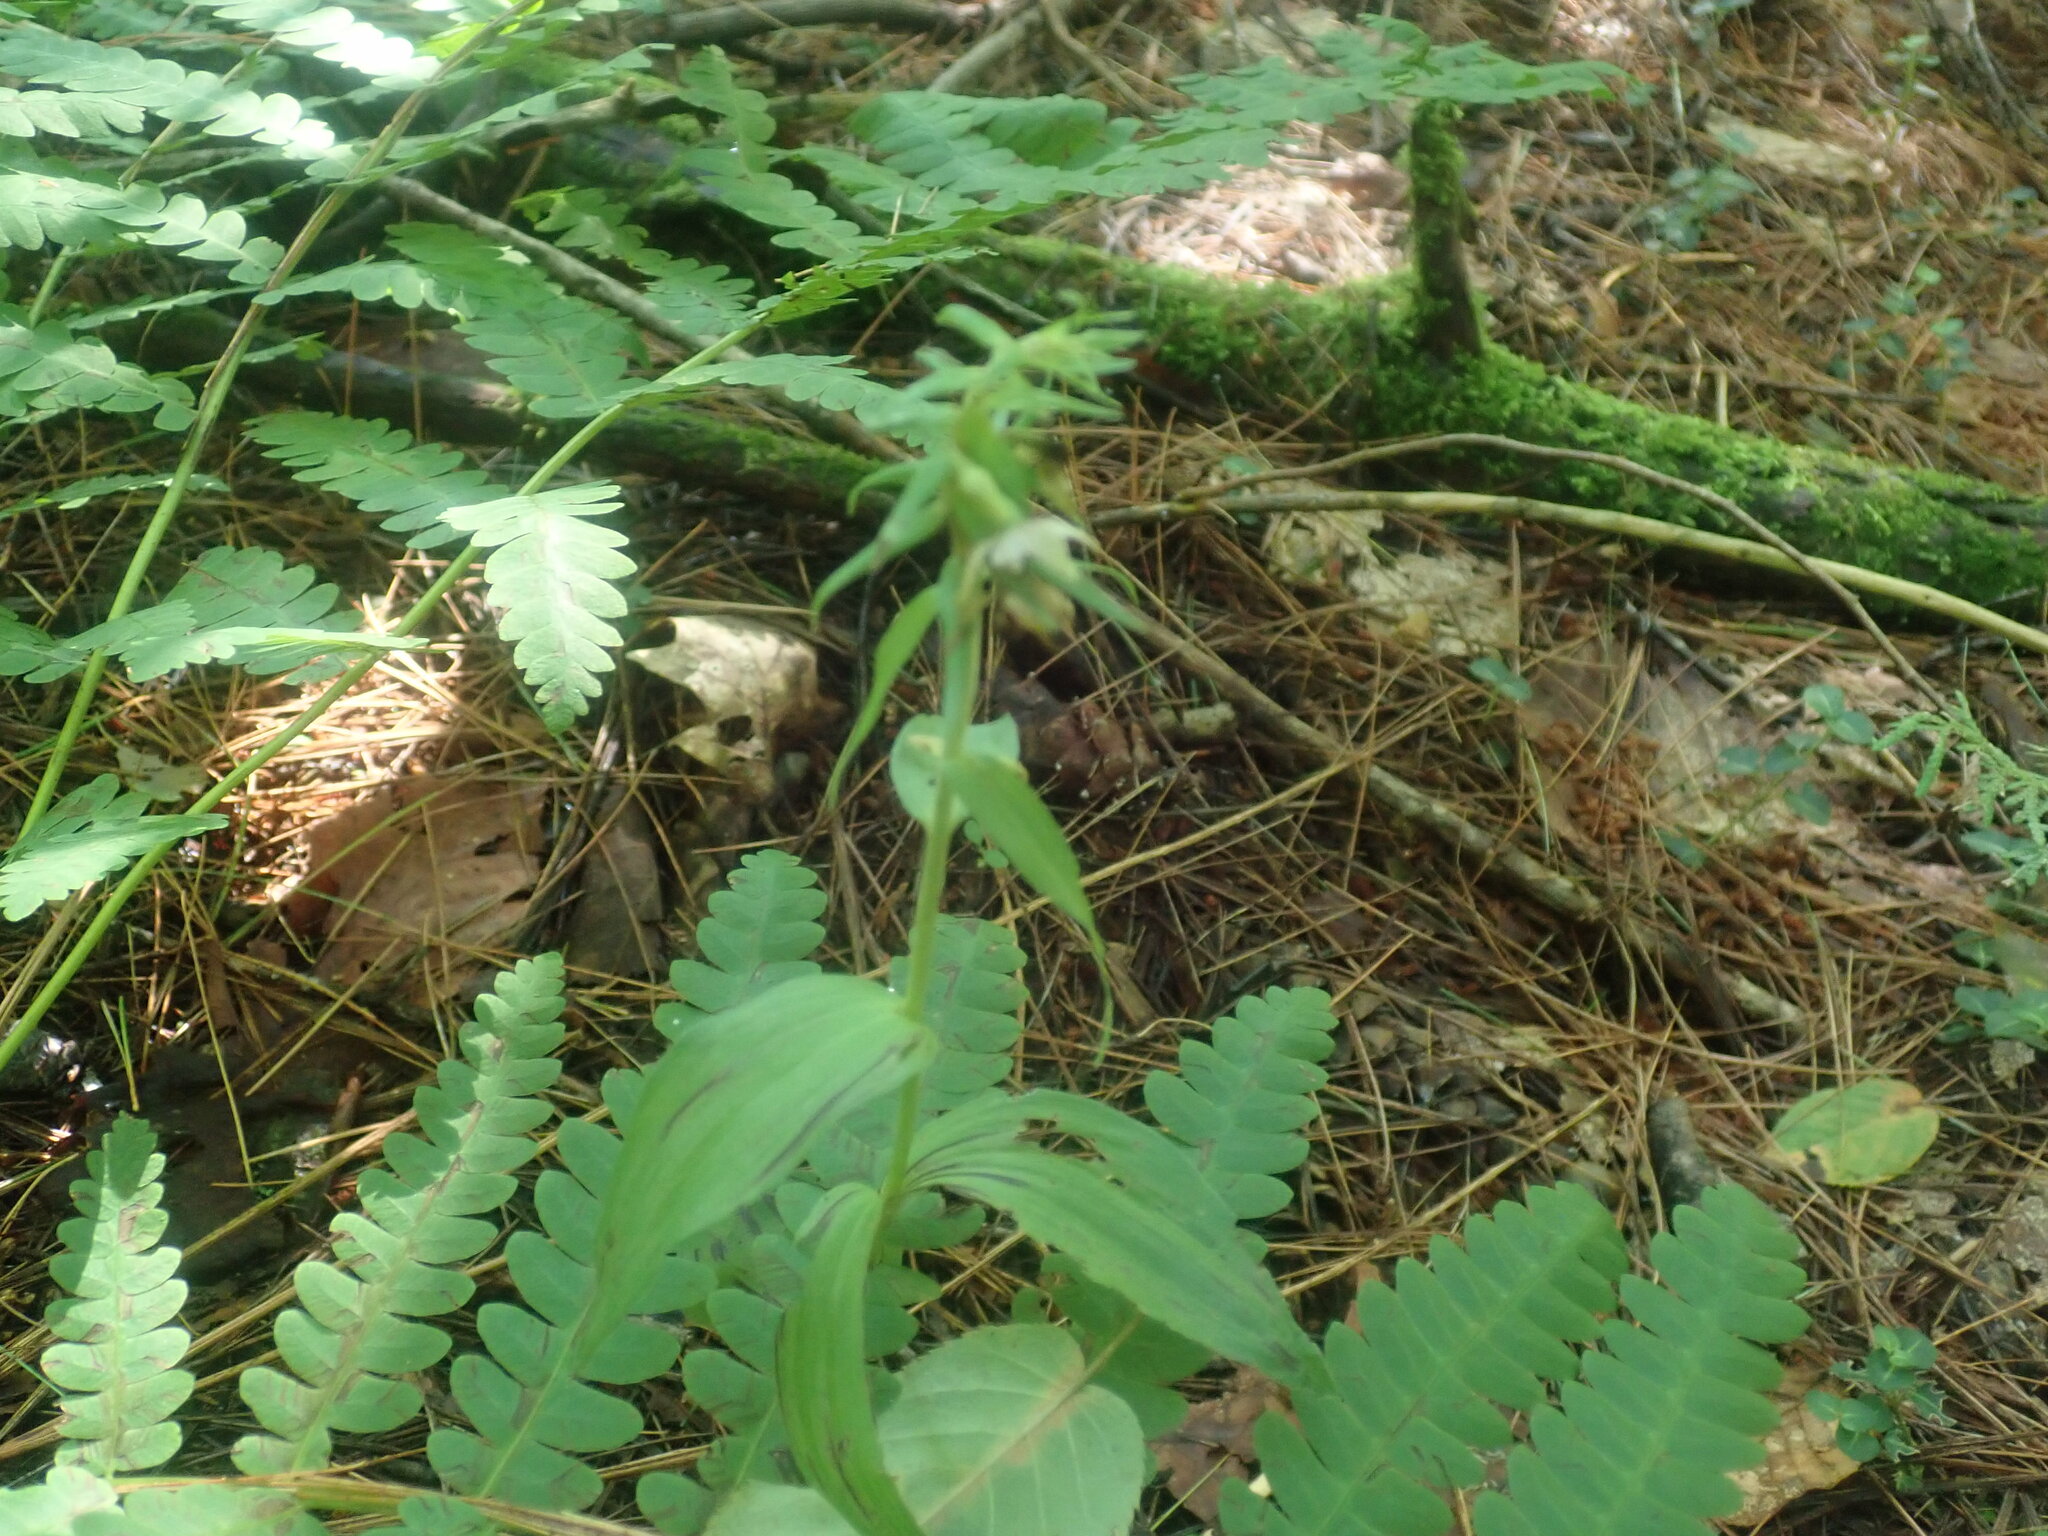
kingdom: Plantae
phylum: Tracheophyta
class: Liliopsida
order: Asparagales
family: Orchidaceae
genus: Epipactis
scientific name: Epipactis helleborine
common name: Broad-leaved helleborine
